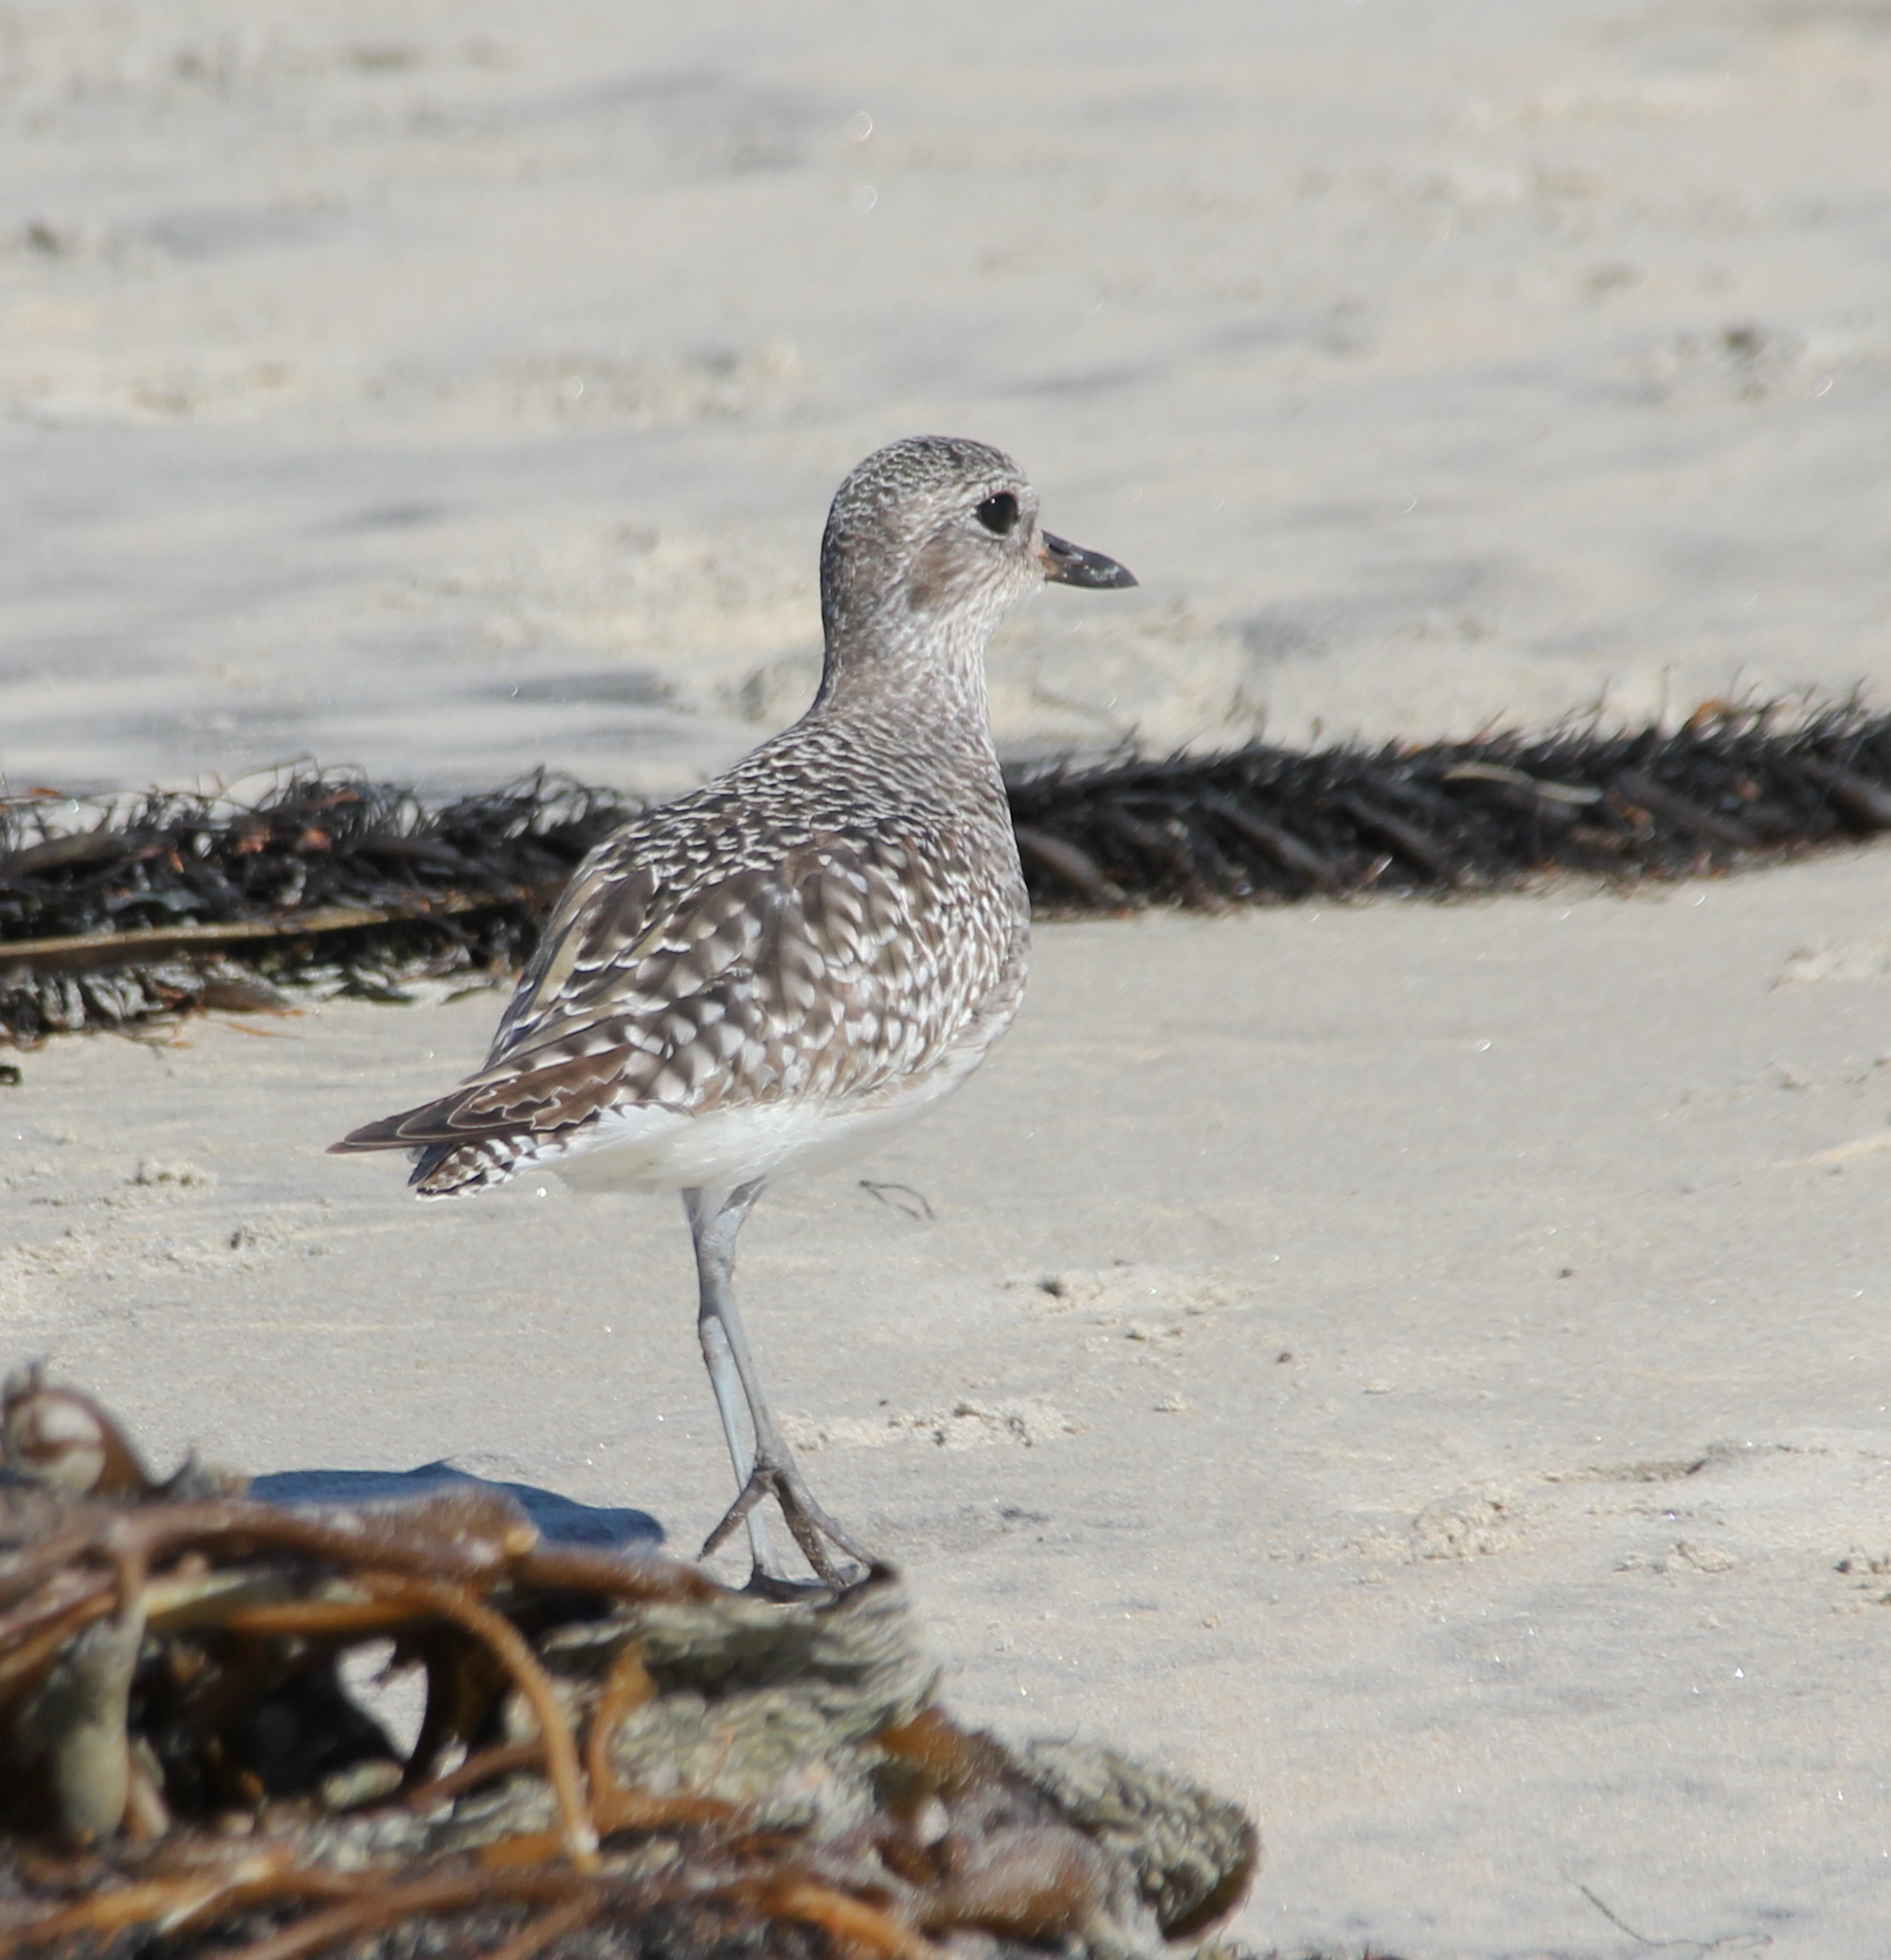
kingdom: Animalia
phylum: Chordata
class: Aves
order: Charadriiformes
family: Charadriidae
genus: Pluvialis
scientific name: Pluvialis squatarola
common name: Grey plover
